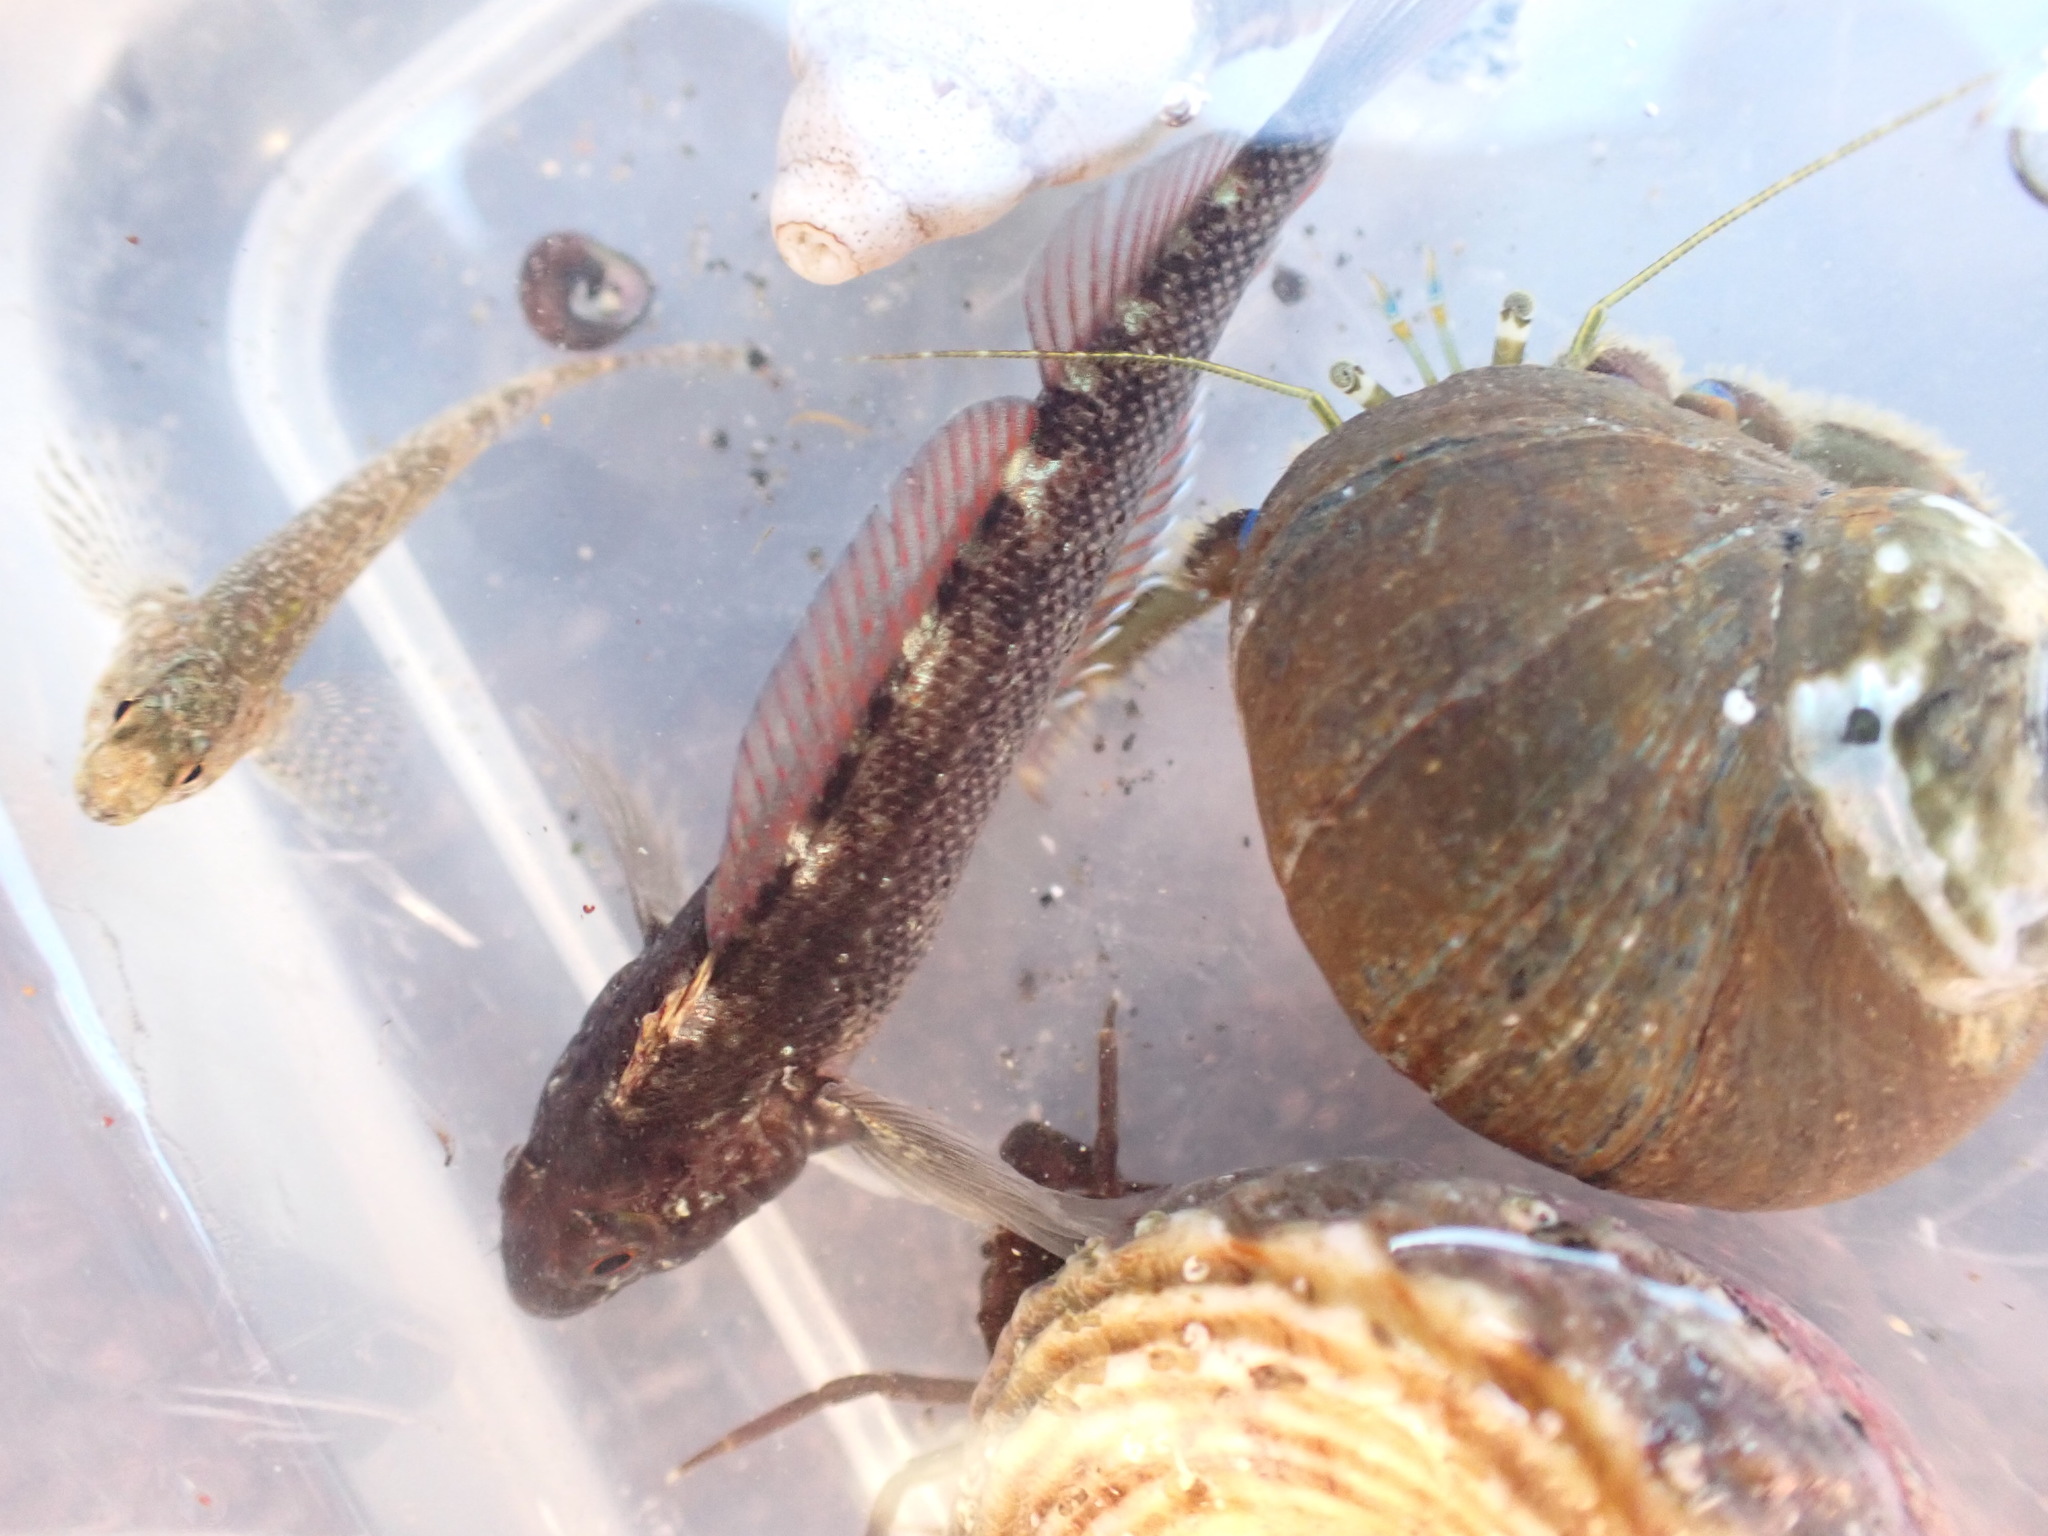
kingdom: Animalia
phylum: Chordata
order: Perciformes
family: Tripterygiidae
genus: Forsterygion
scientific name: Forsterygion lapillum
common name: Common triplefin
